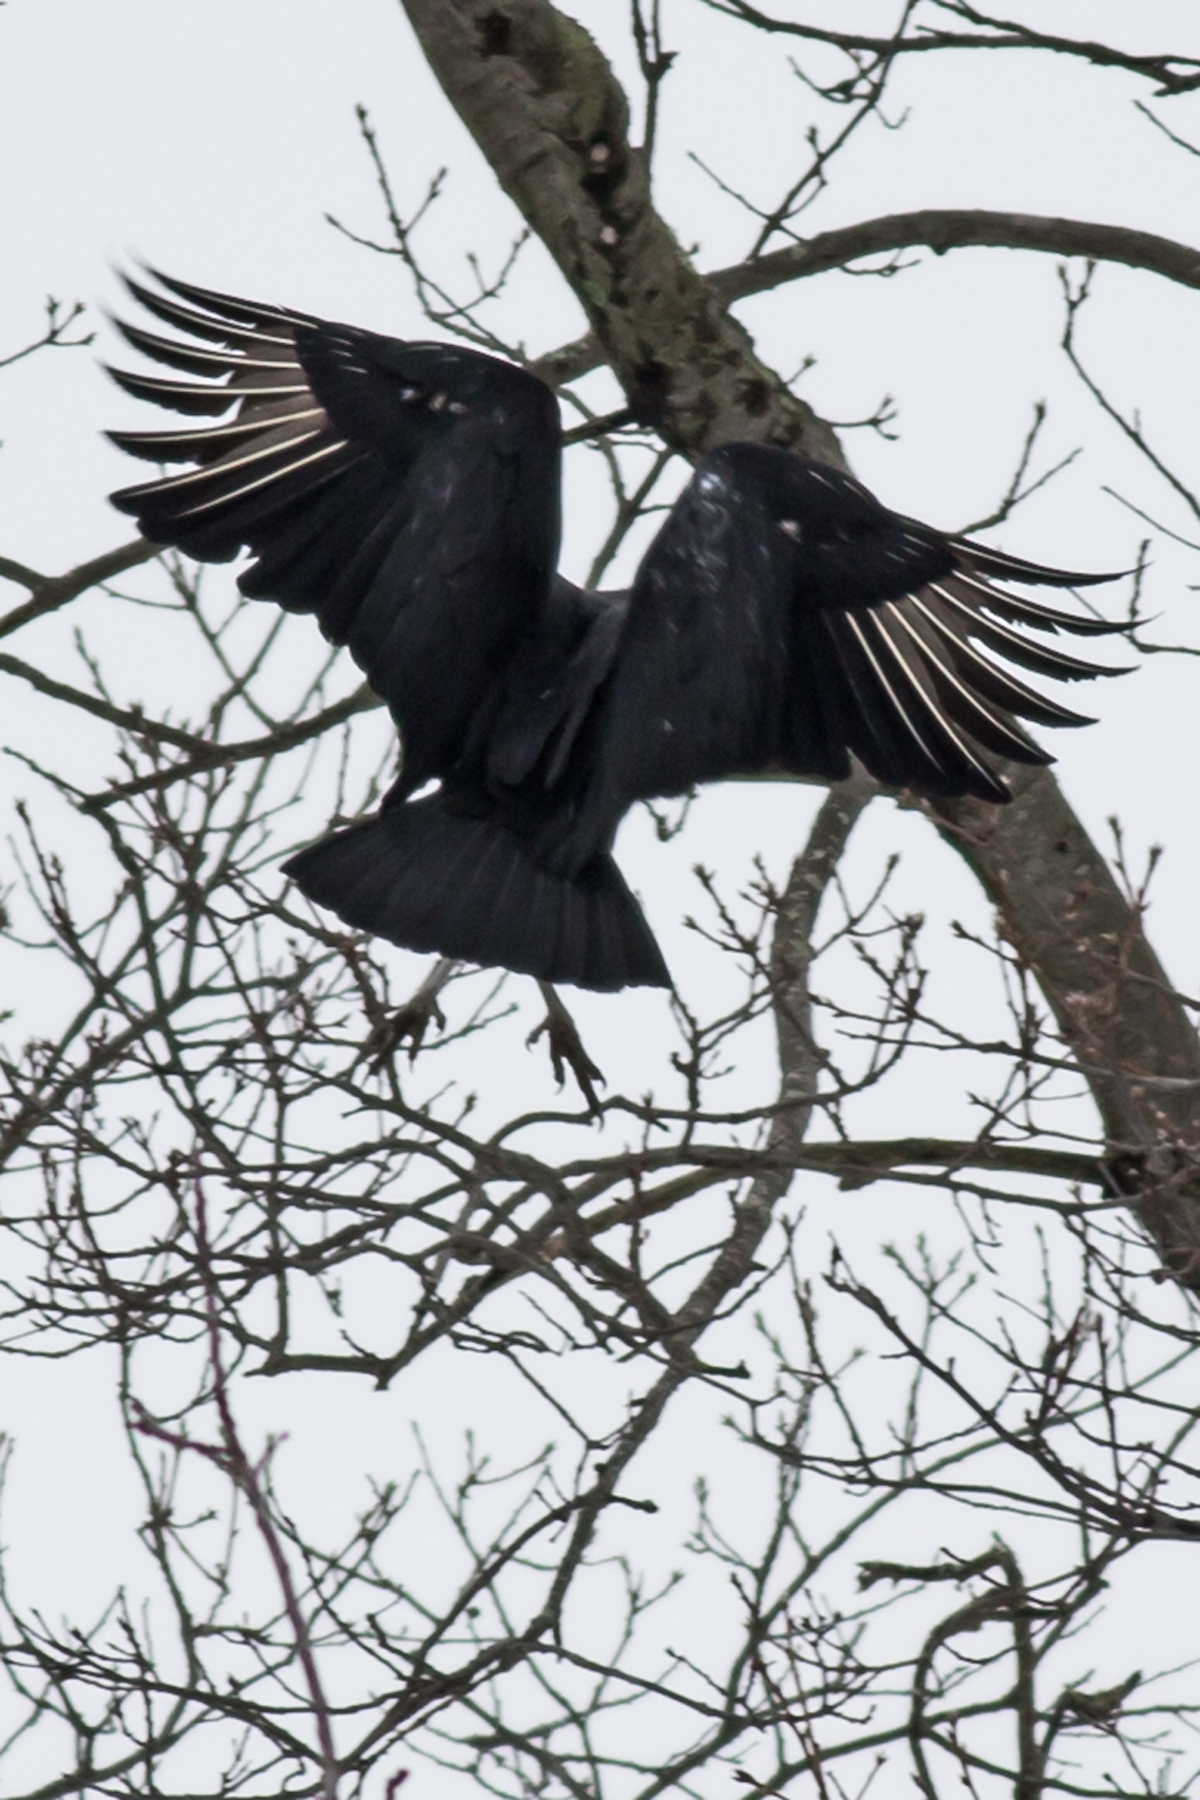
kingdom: Animalia
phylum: Chordata
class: Aves
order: Accipitriformes
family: Cathartidae
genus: Coragyps
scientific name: Coragyps atratus
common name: Black vulture
